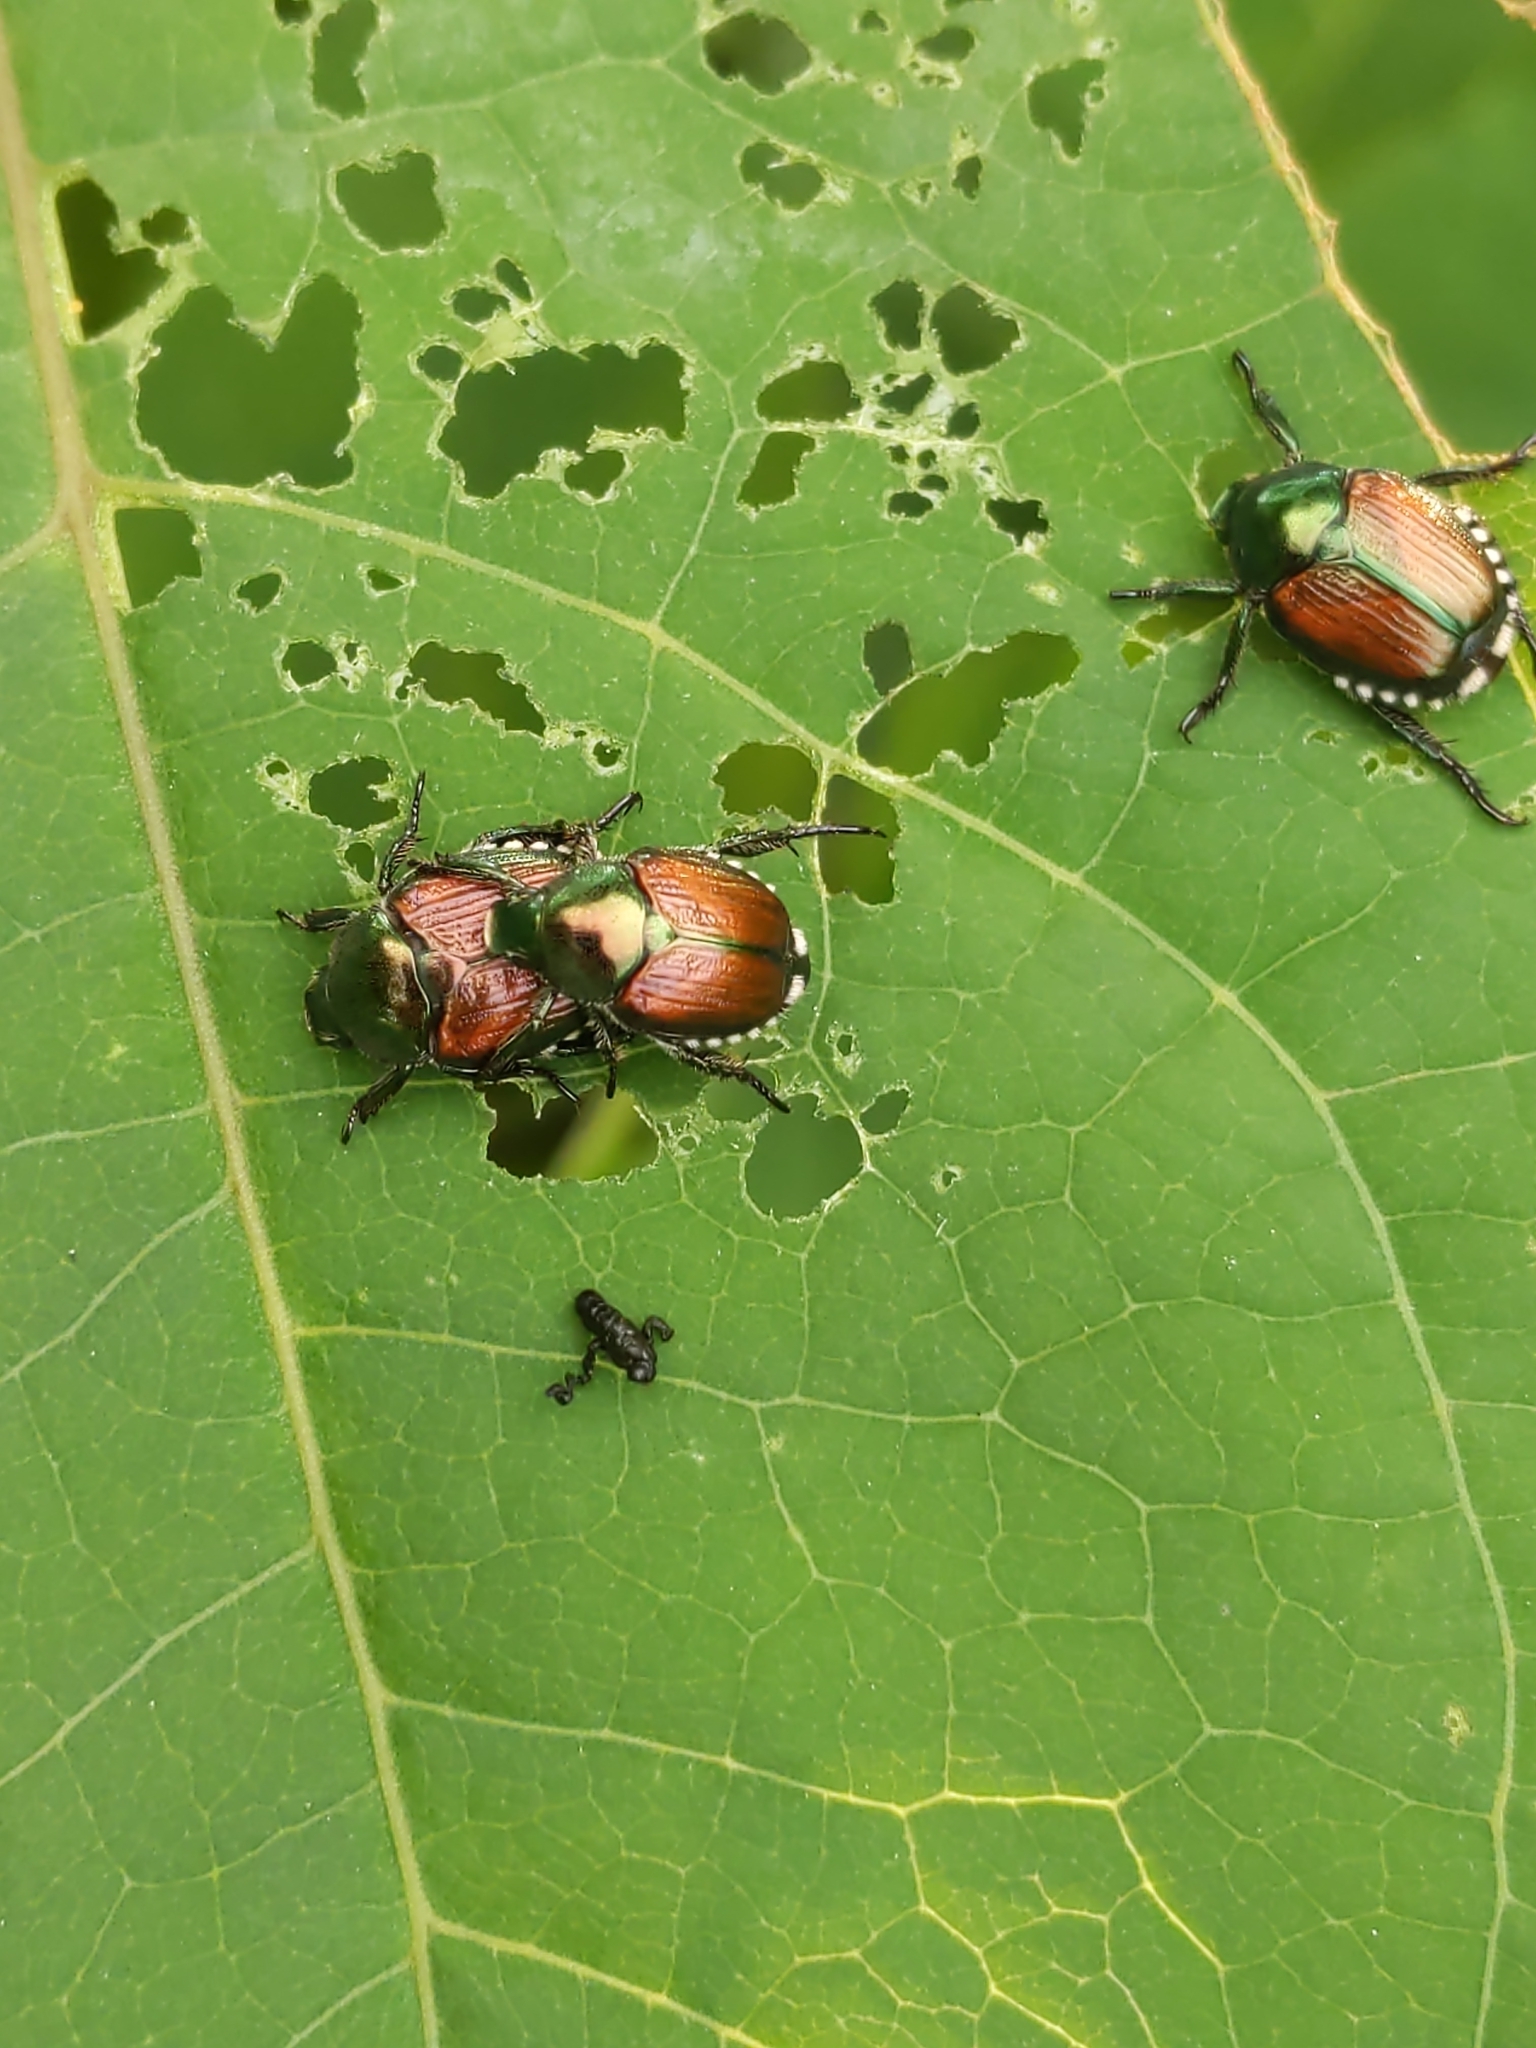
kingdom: Animalia
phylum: Arthropoda
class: Insecta
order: Coleoptera
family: Scarabaeidae
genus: Popillia
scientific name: Popillia japonica
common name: Japanese beetle
